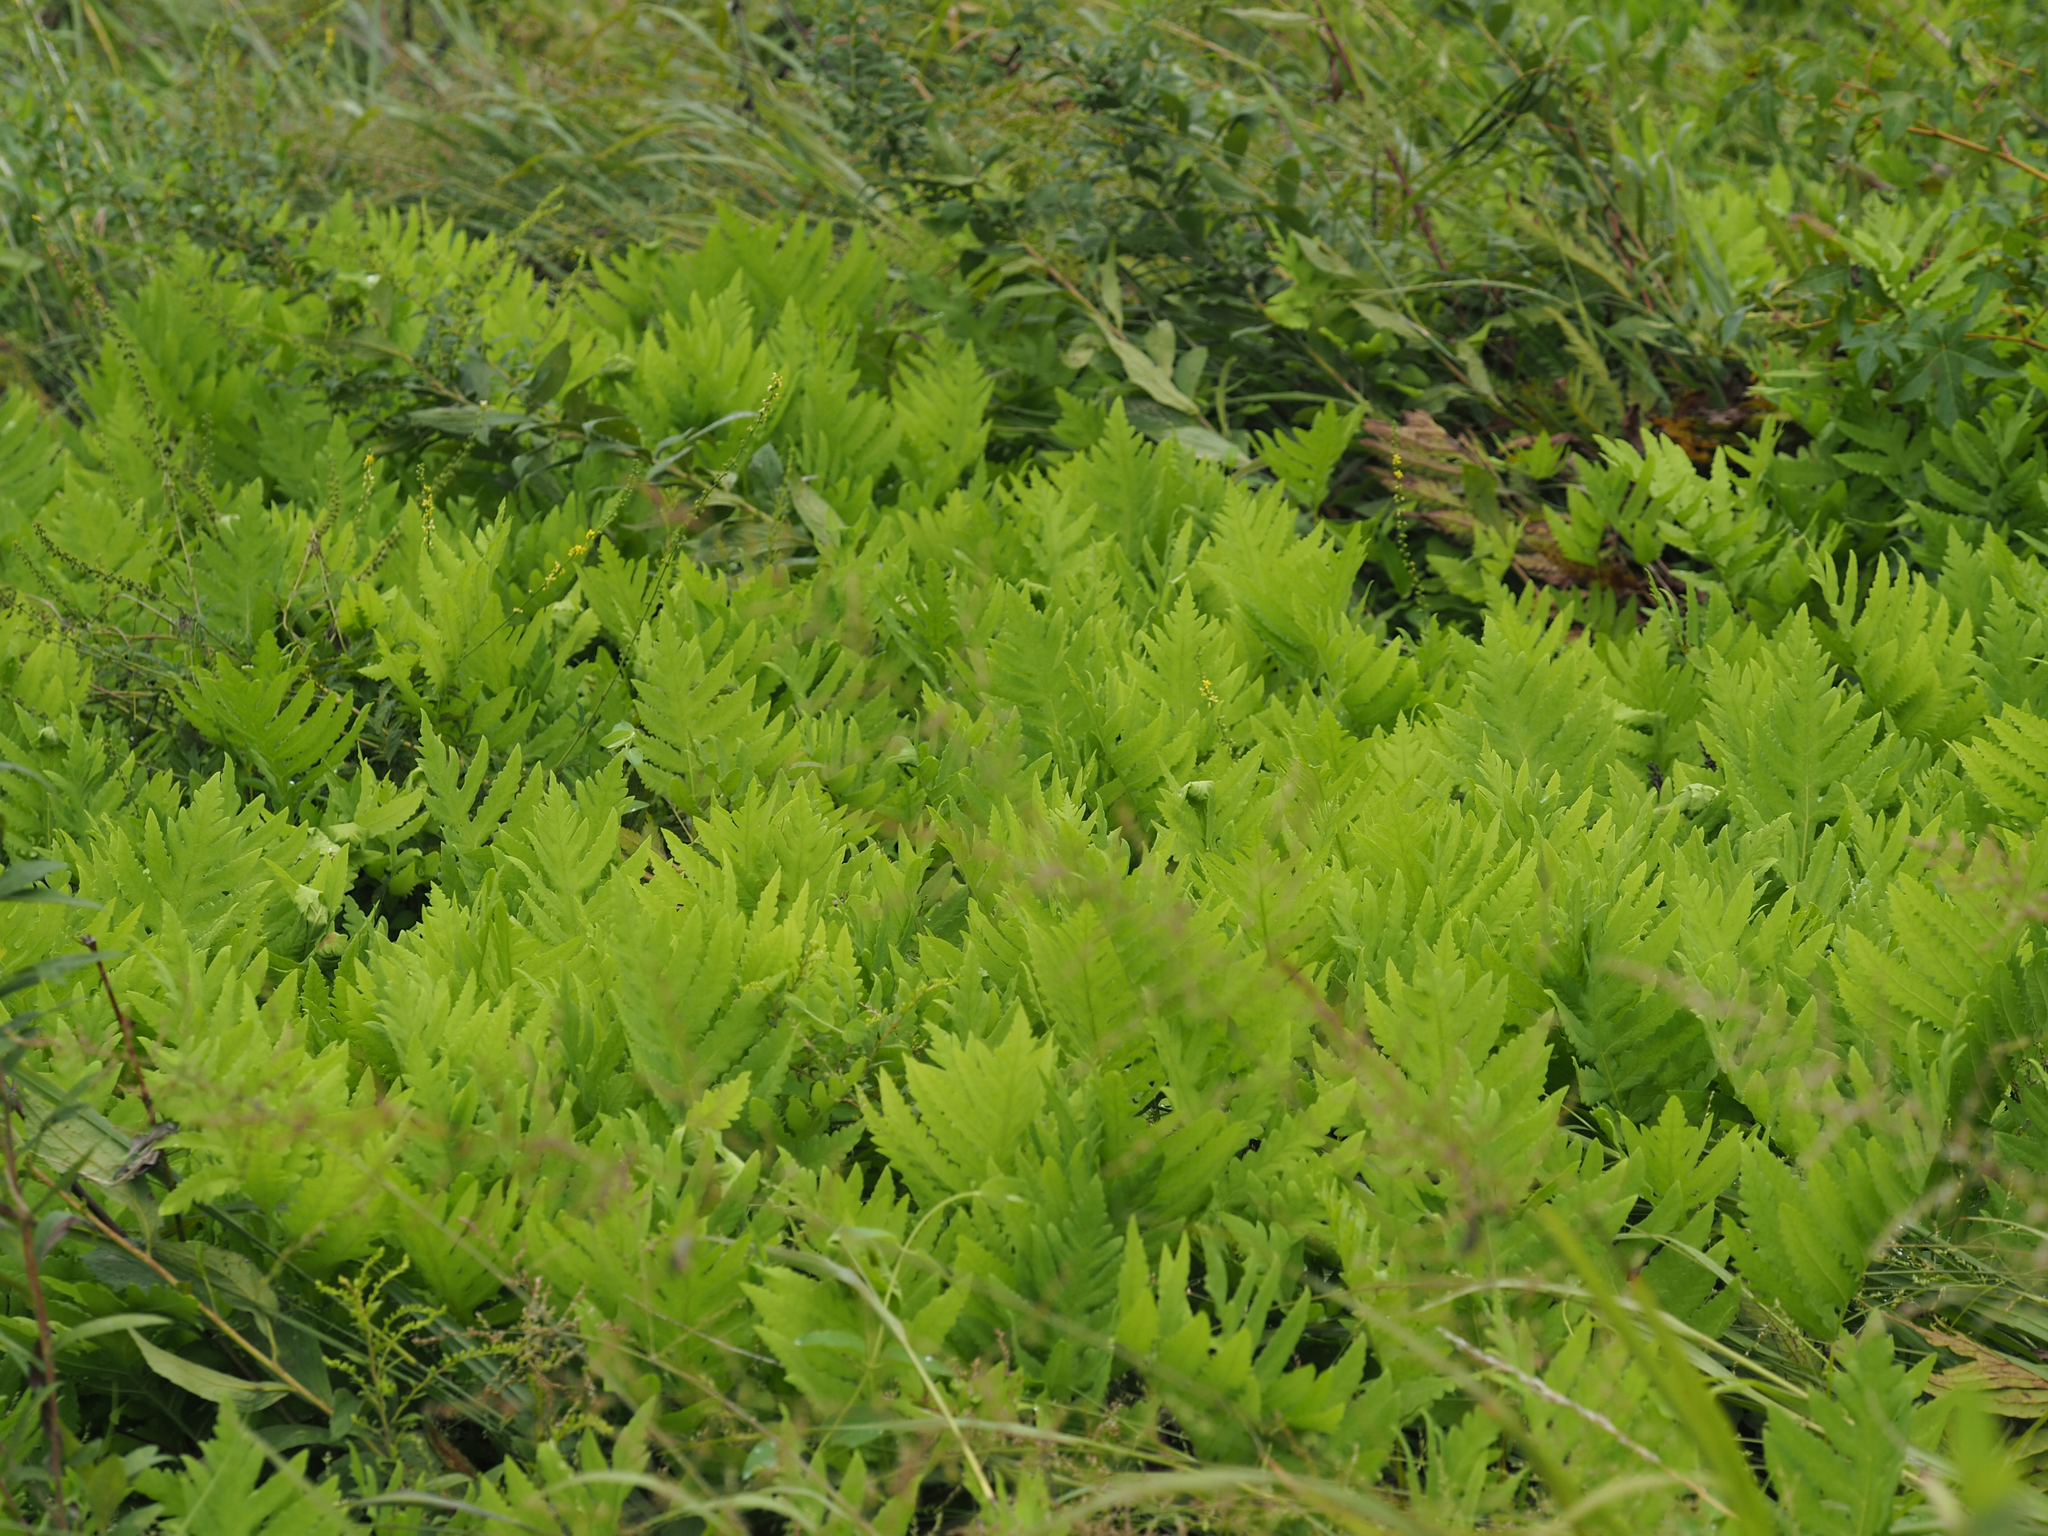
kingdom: Plantae
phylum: Tracheophyta
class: Polypodiopsida
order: Polypodiales
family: Onocleaceae
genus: Onoclea
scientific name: Onoclea sensibilis
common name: Sensitive fern
